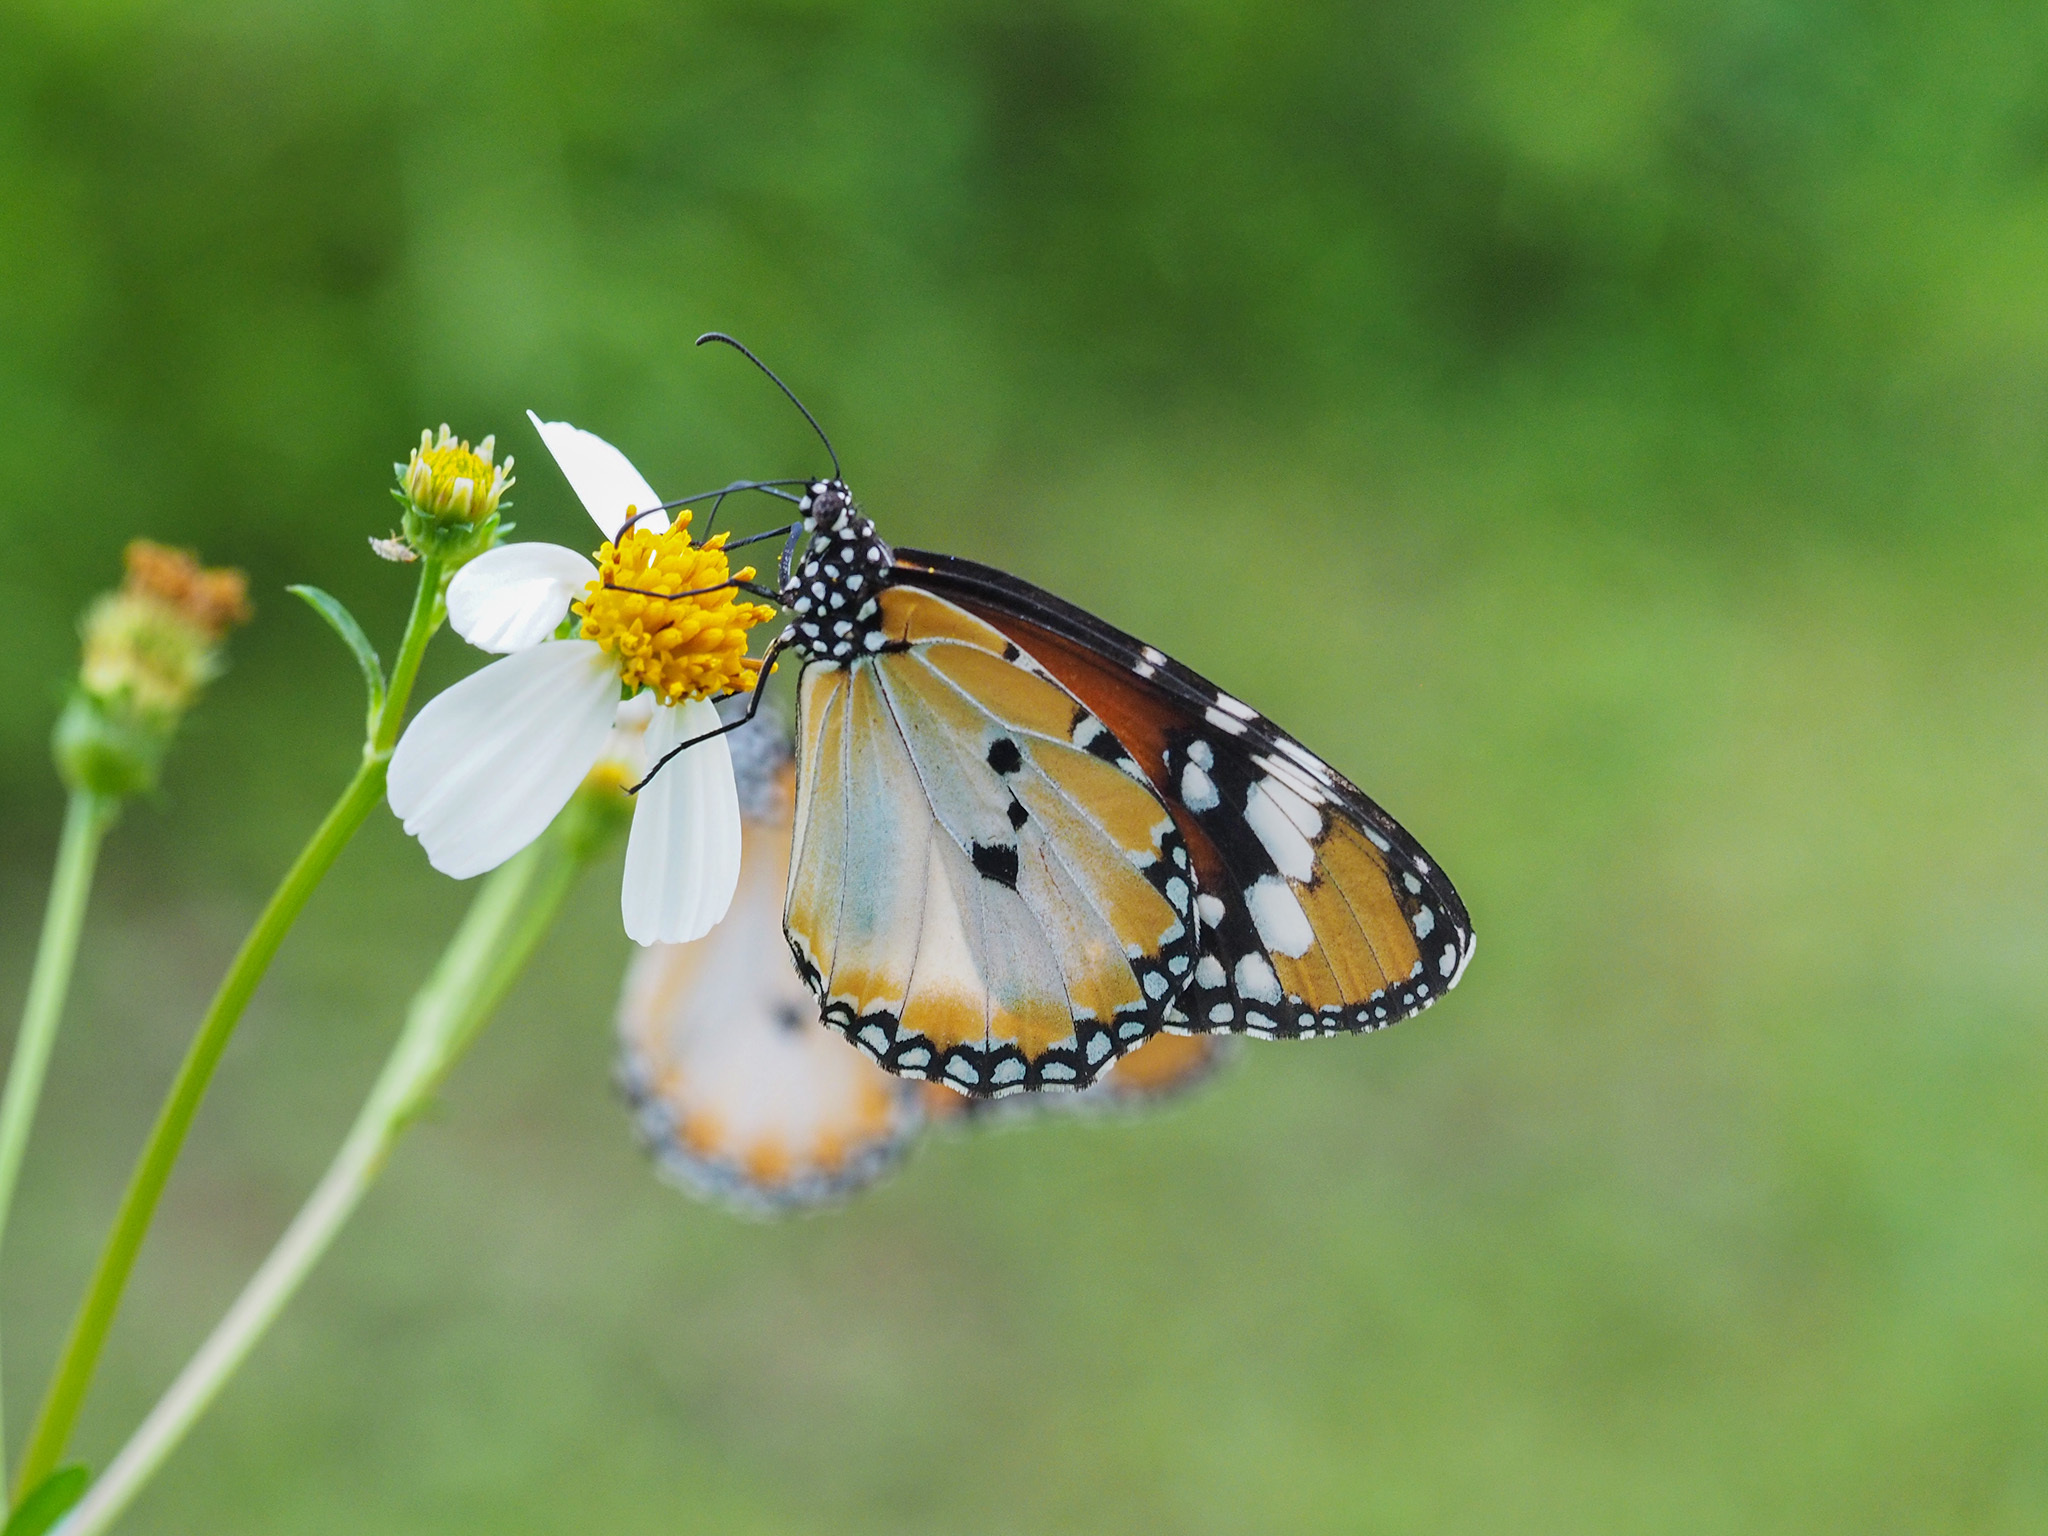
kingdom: Animalia
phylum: Arthropoda
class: Insecta
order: Lepidoptera
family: Nymphalidae
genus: Danaus
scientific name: Danaus chrysippus
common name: Plain tiger
